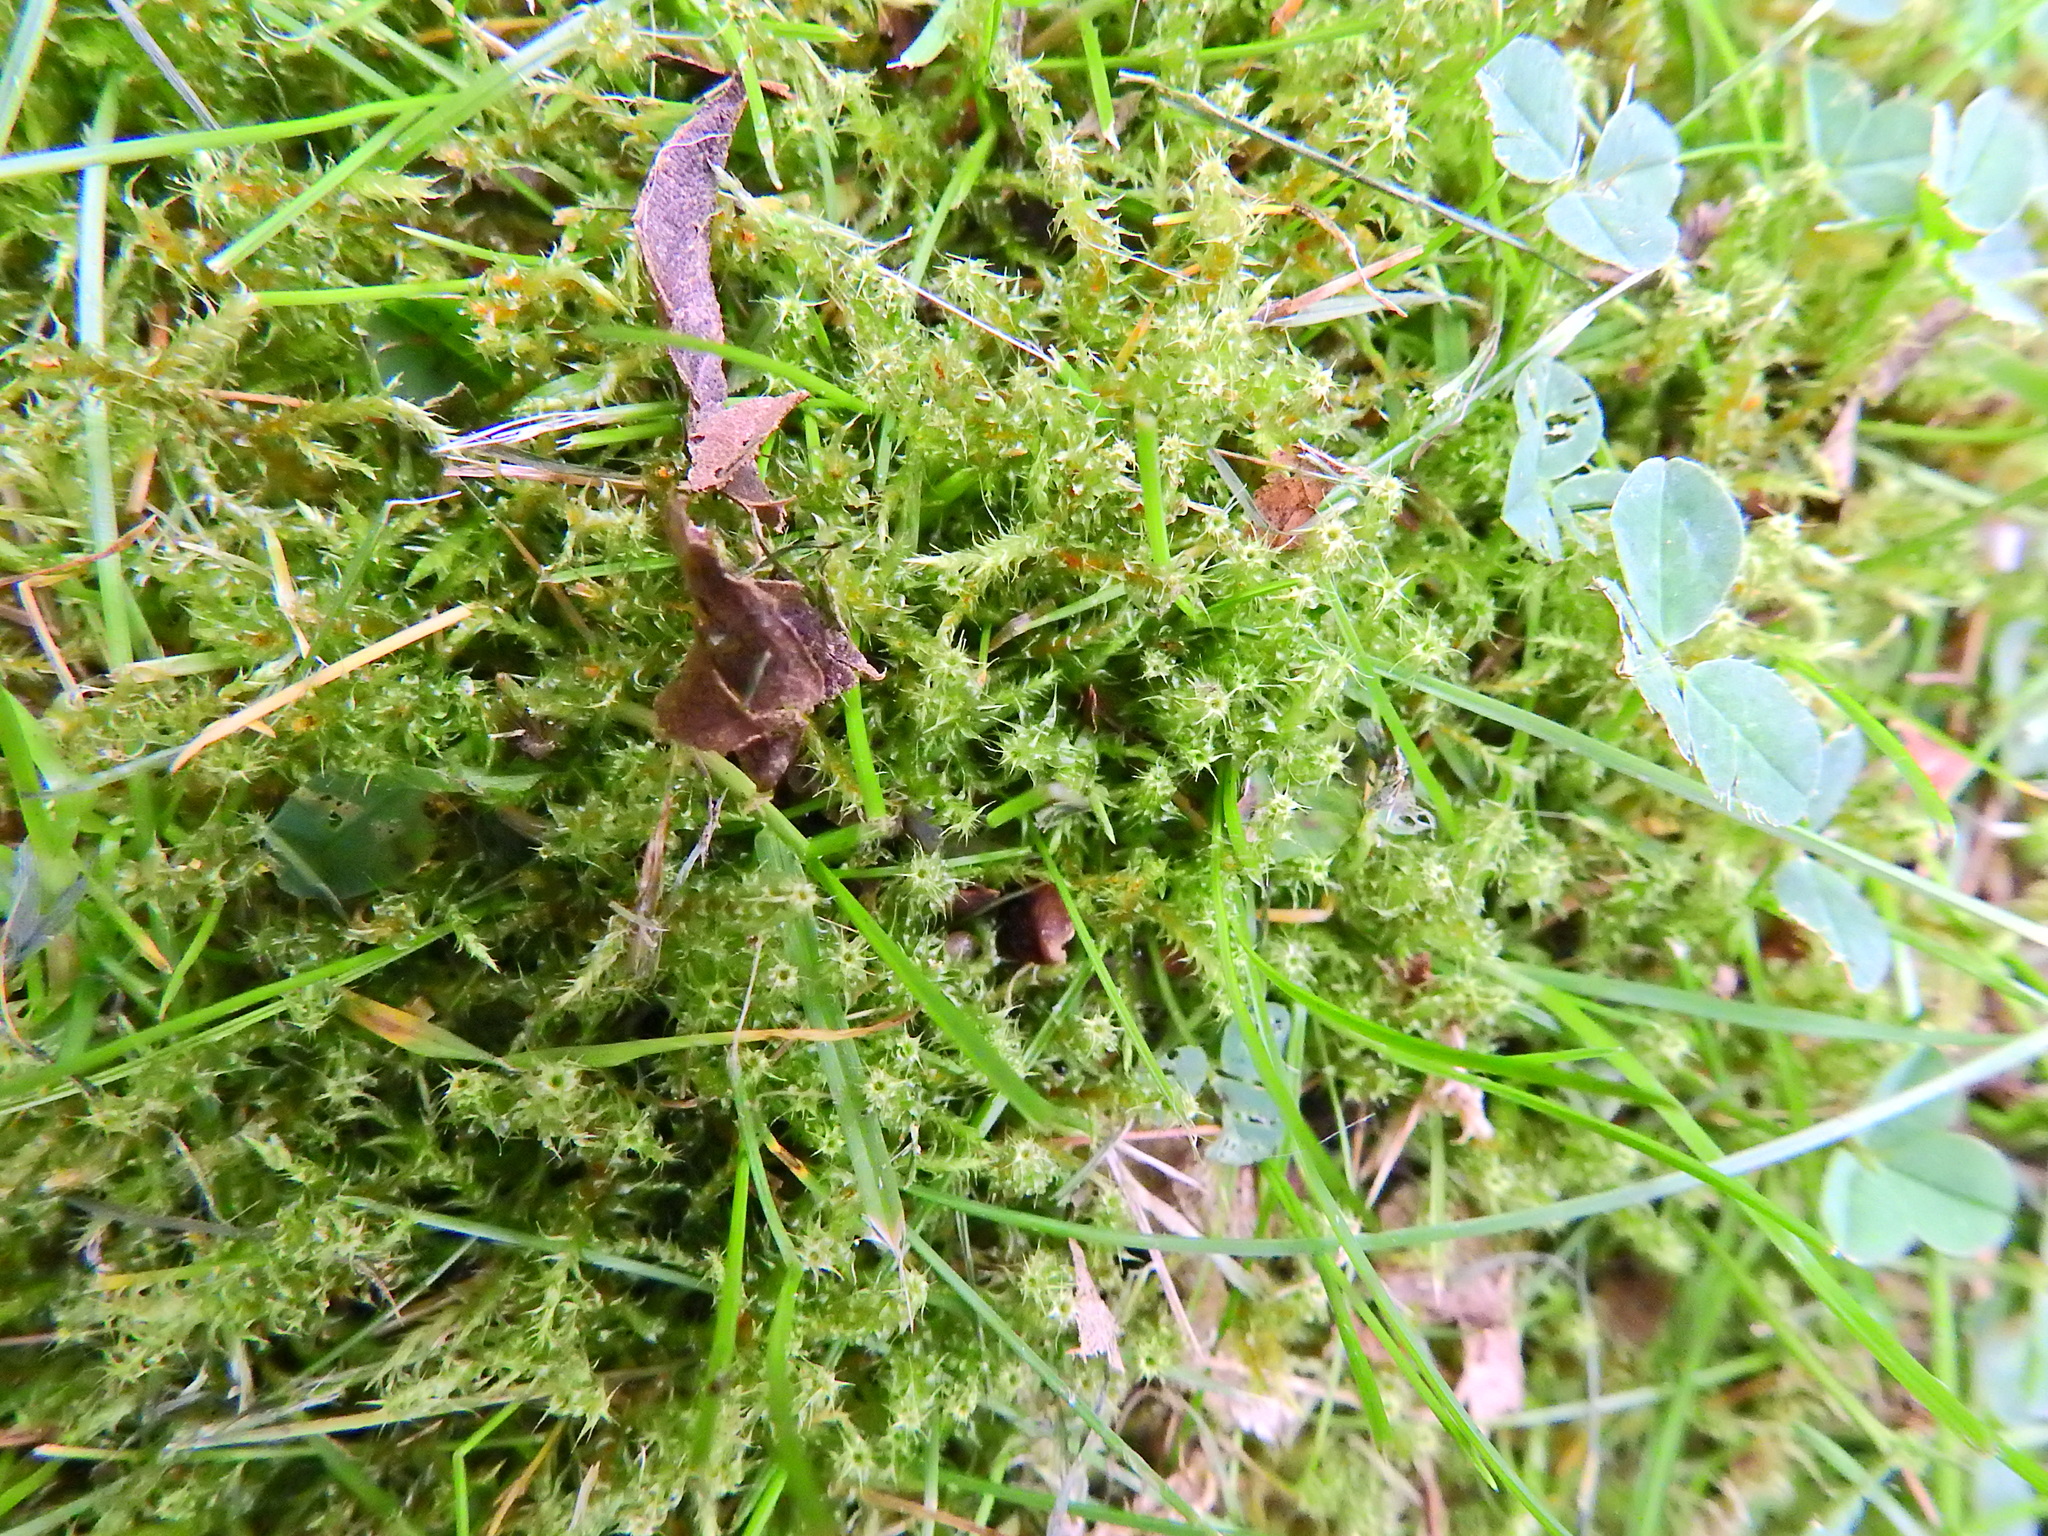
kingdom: Plantae
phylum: Bryophyta
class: Bryopsida
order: Hypnales
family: Hylocomiaceae
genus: Rhytidiadelphus
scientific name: Rhytidiadelphus squarrosus
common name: Springy turf-moss
